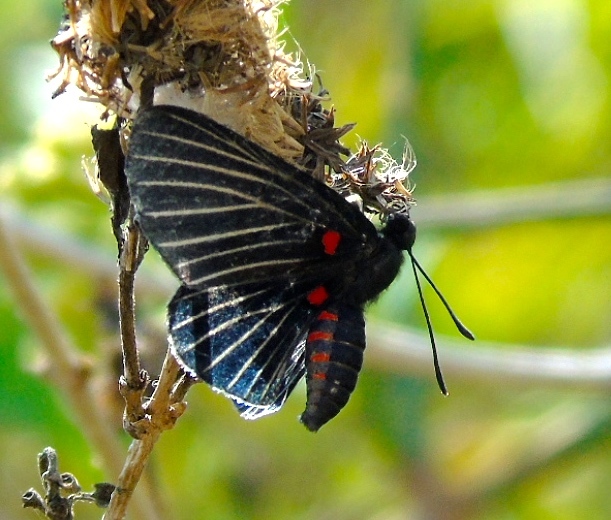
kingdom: Animalia
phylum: Arthropoda
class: Insecta
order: Lepidoptera
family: Lycaenidae
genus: Melanis
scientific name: Melanis
